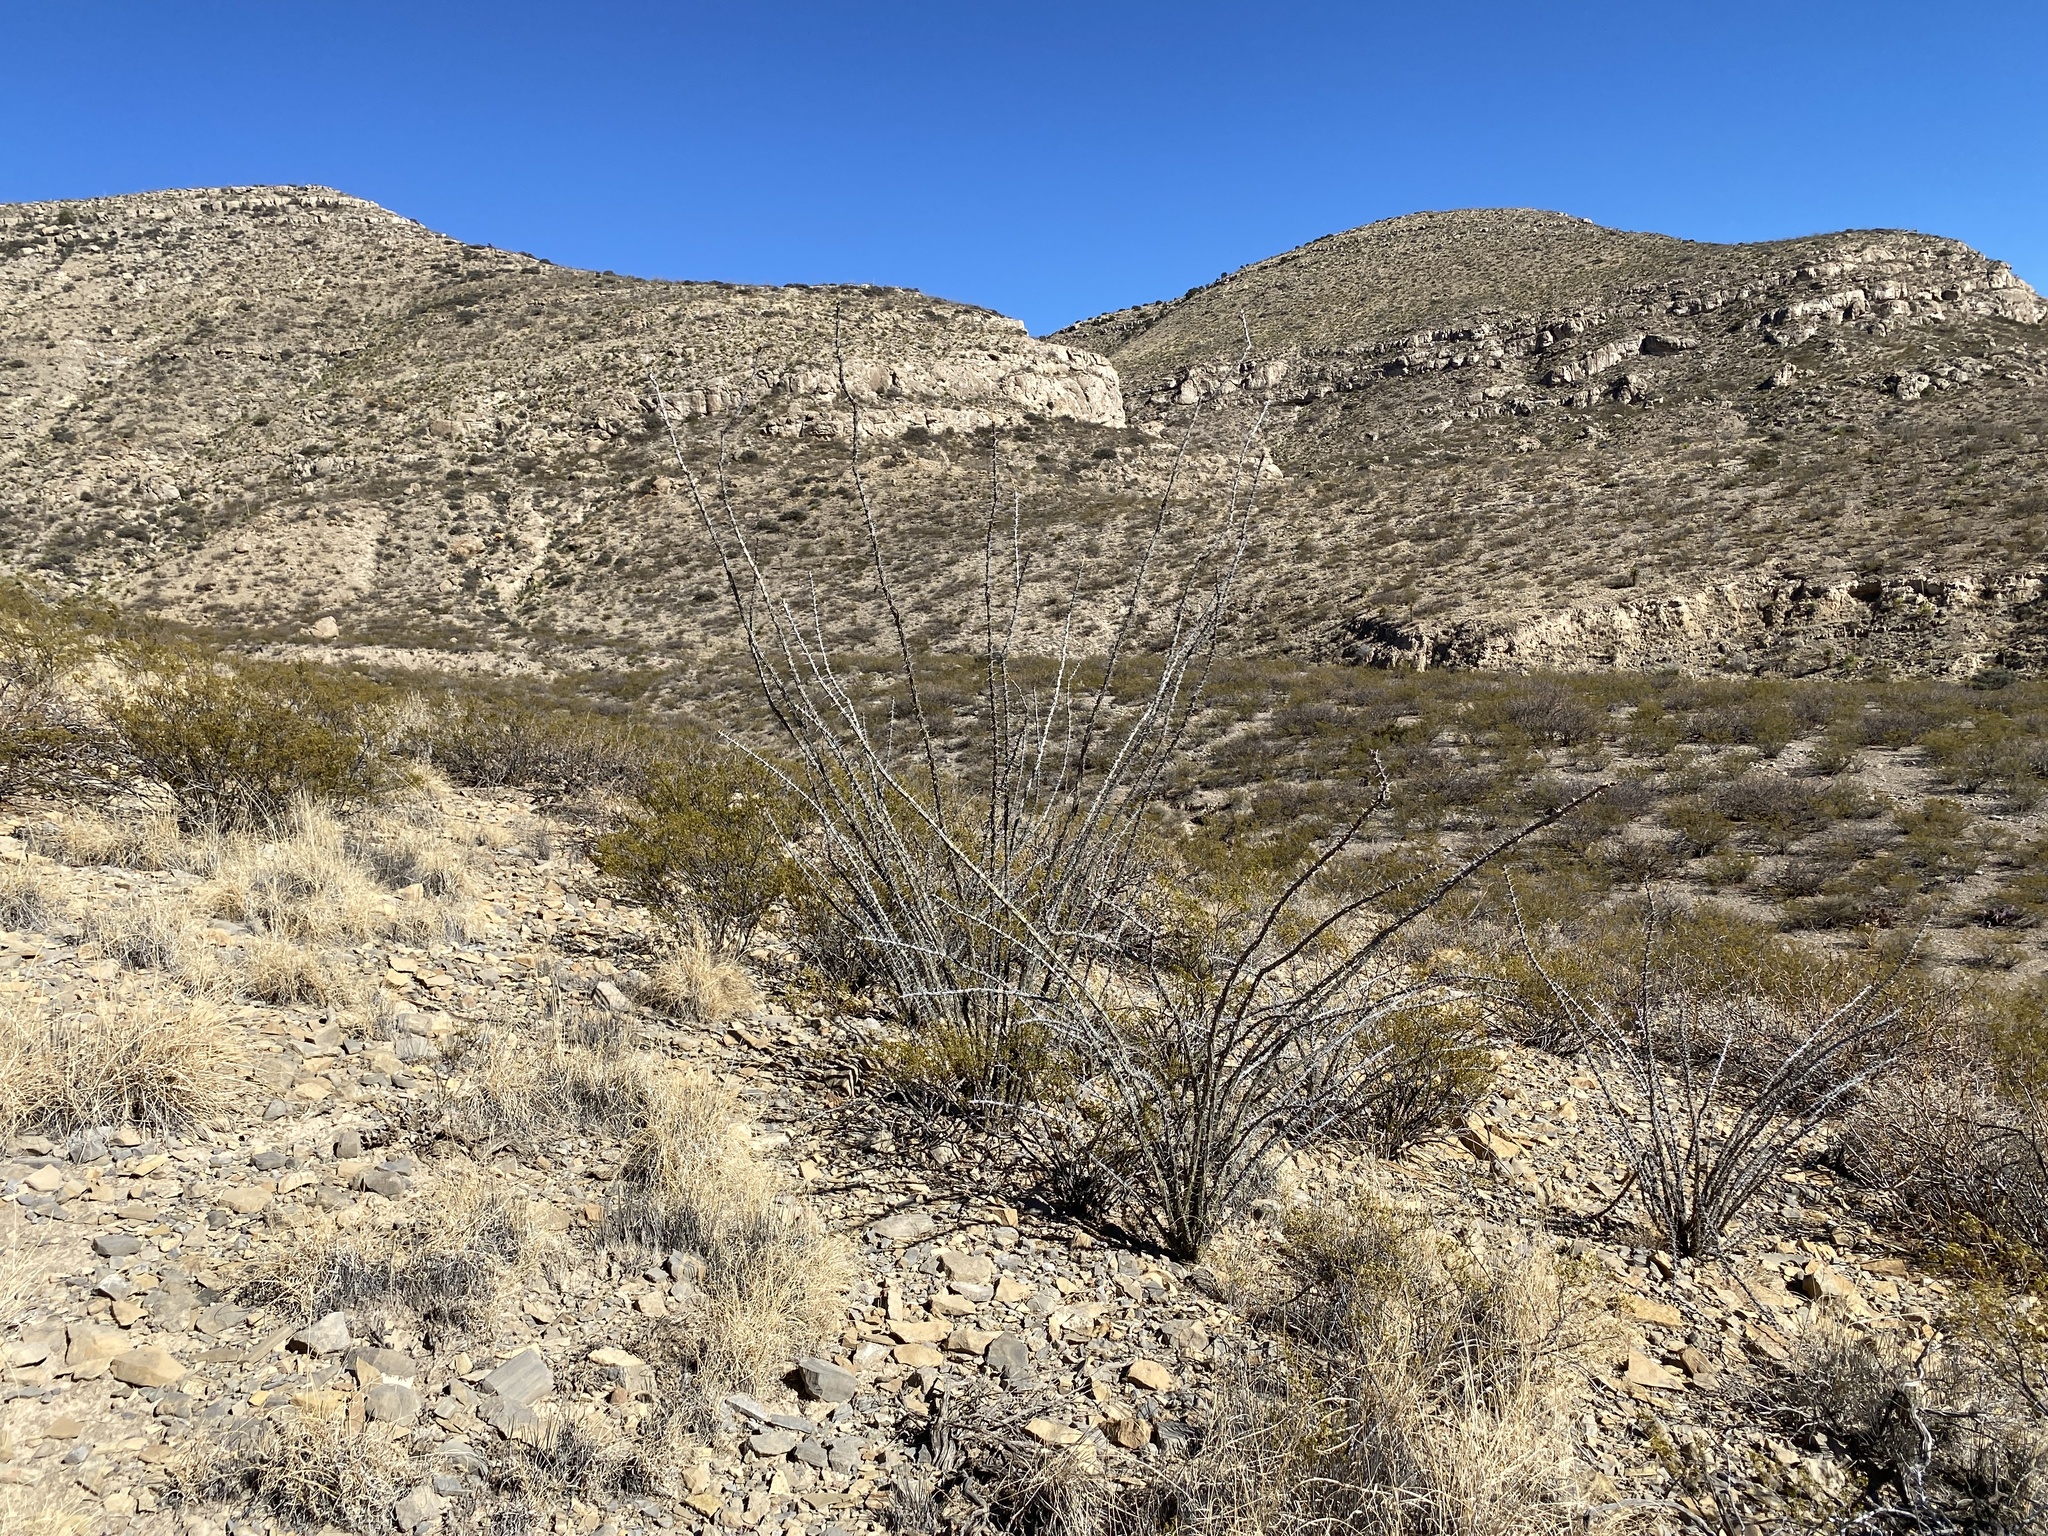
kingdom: Plantae
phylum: Tracheophyta
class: Magnoliopsida
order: Ericales
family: Fouquieriaceae
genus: Fouquieria
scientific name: Fouquieria splendens
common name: Vine-cactus
